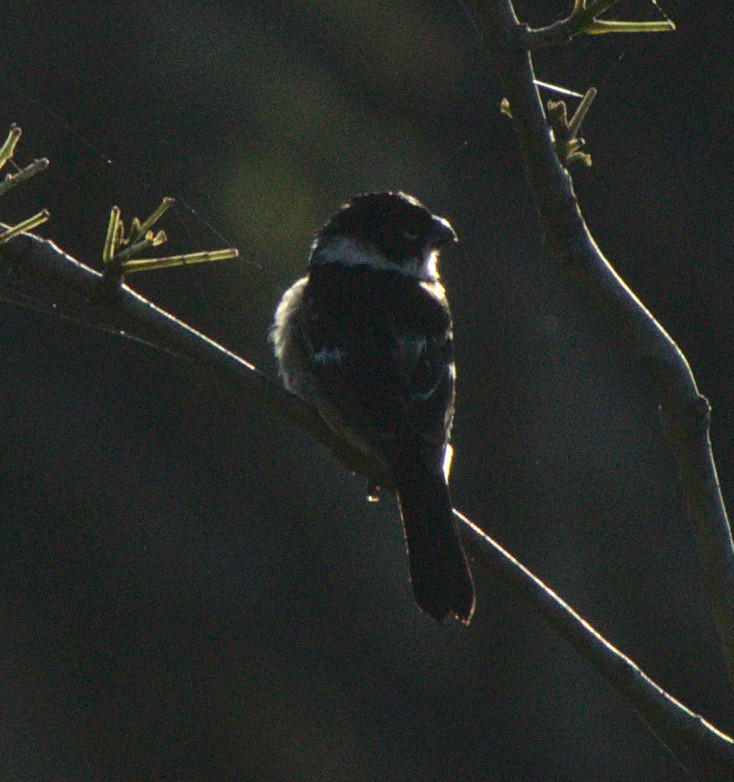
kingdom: Animalia
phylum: Chordata
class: Aves
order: Passeriformes
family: Thraupidae
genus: Sporophila
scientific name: Sporophila morelleti
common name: Morelet's seedeater
